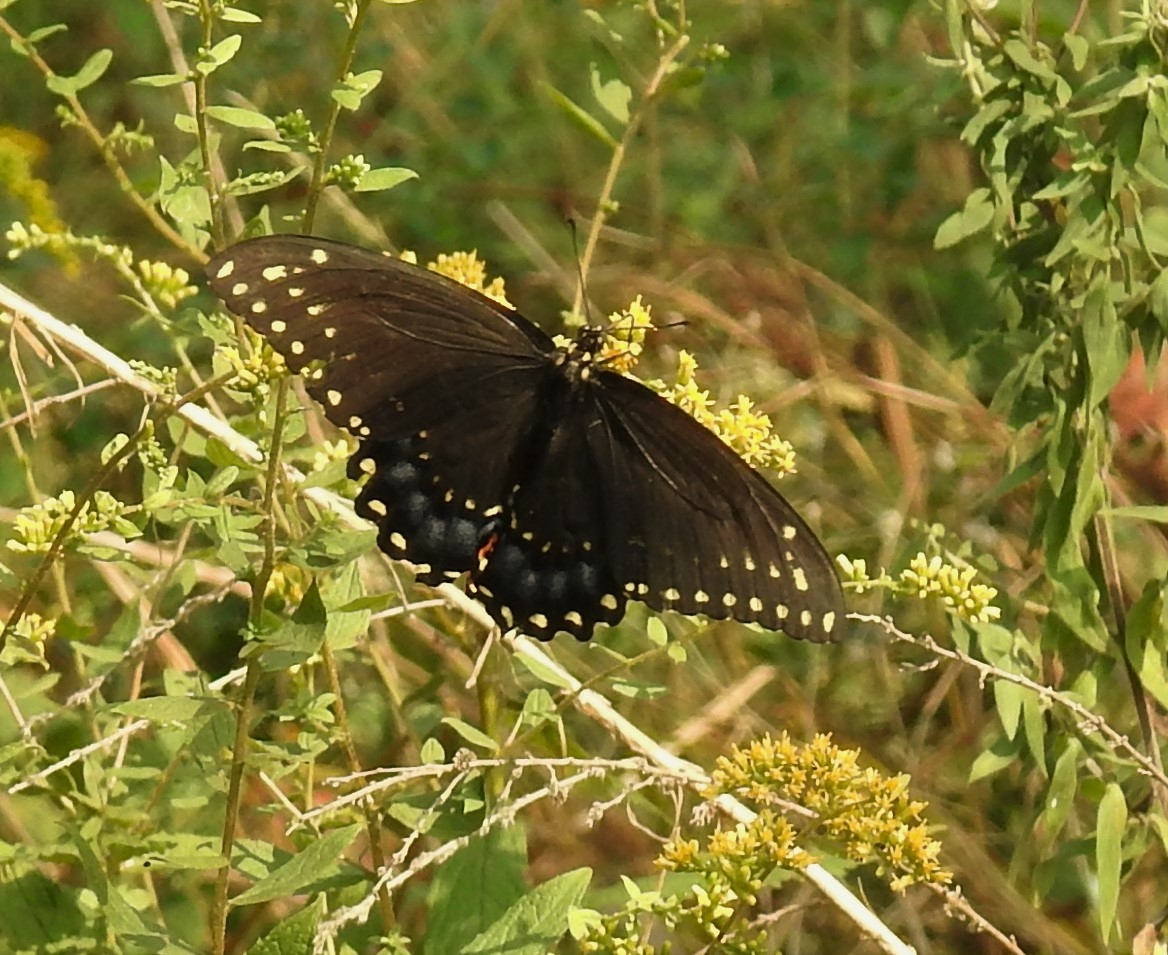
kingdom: Animalia
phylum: Arthropoda
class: Insecta
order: Lepidoptera
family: Papilionidae
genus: Papilio
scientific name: Papilio polyxenes
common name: Black swallowtail
